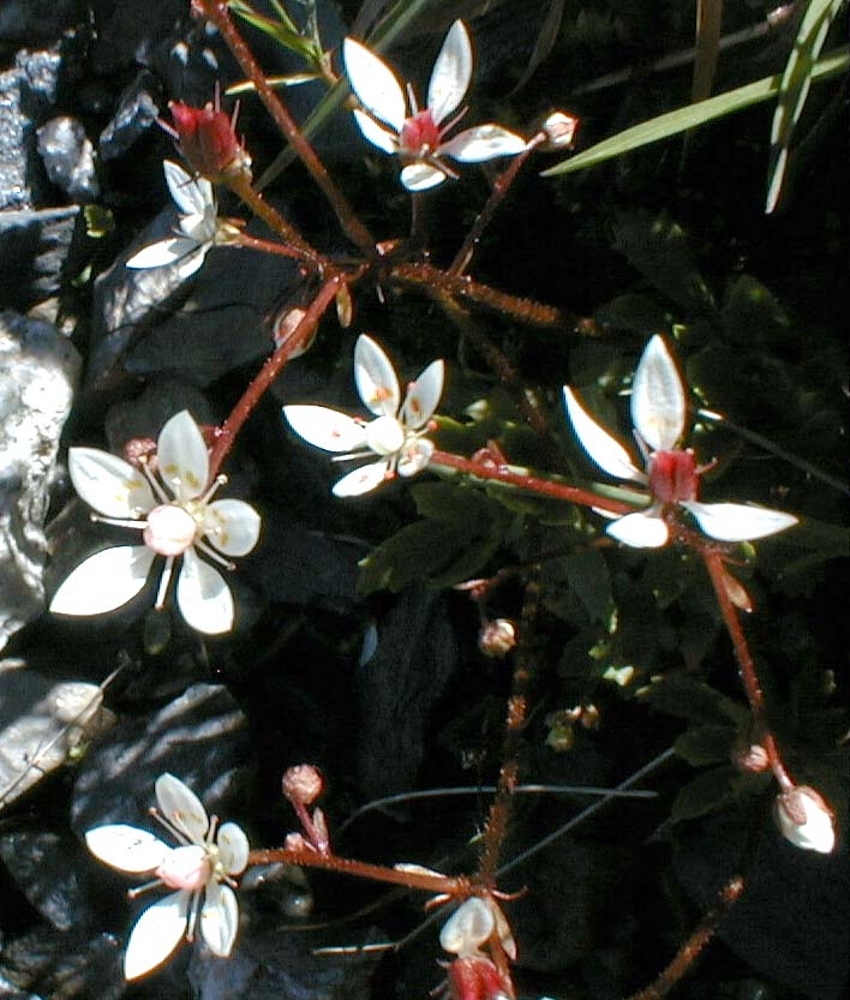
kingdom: Plantae
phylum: Tracheophyta
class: Magnoliopsida
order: Saxifragales
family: Saxifragaceae
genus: Micranthes
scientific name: Micranthes stellaris
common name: Starry saxifrage
